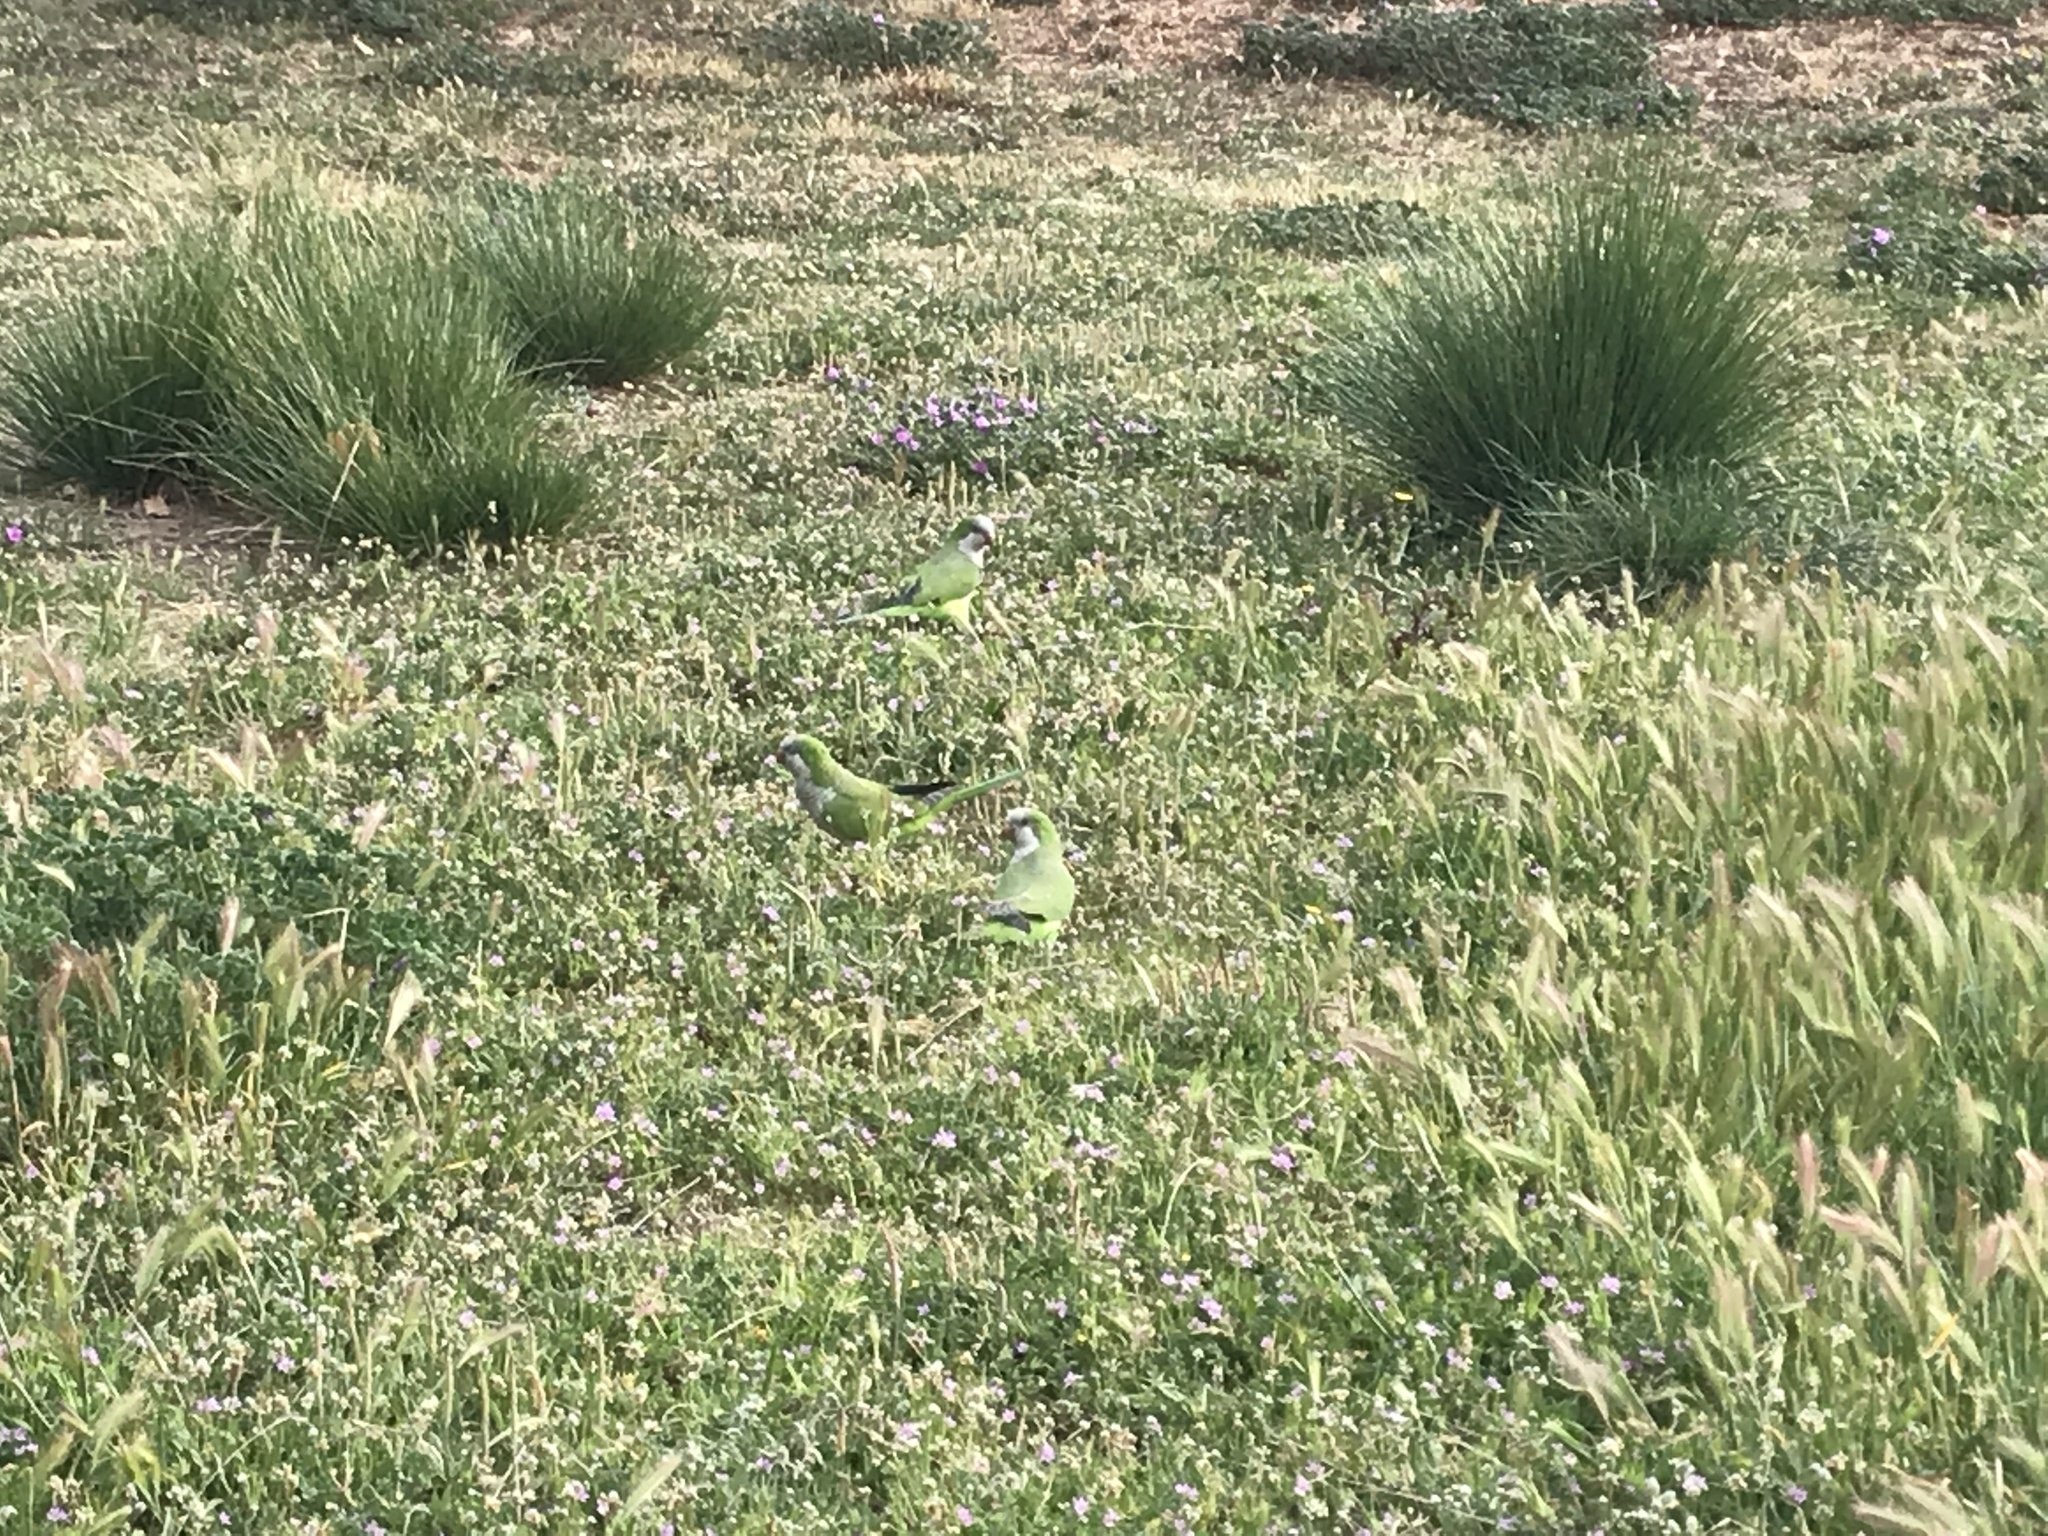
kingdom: Animalia
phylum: Chordata
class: Aves
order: Psittaciformes
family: Psittacidae
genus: Myiopsitta
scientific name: Myiopsitta monachus
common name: Monk parakeet
